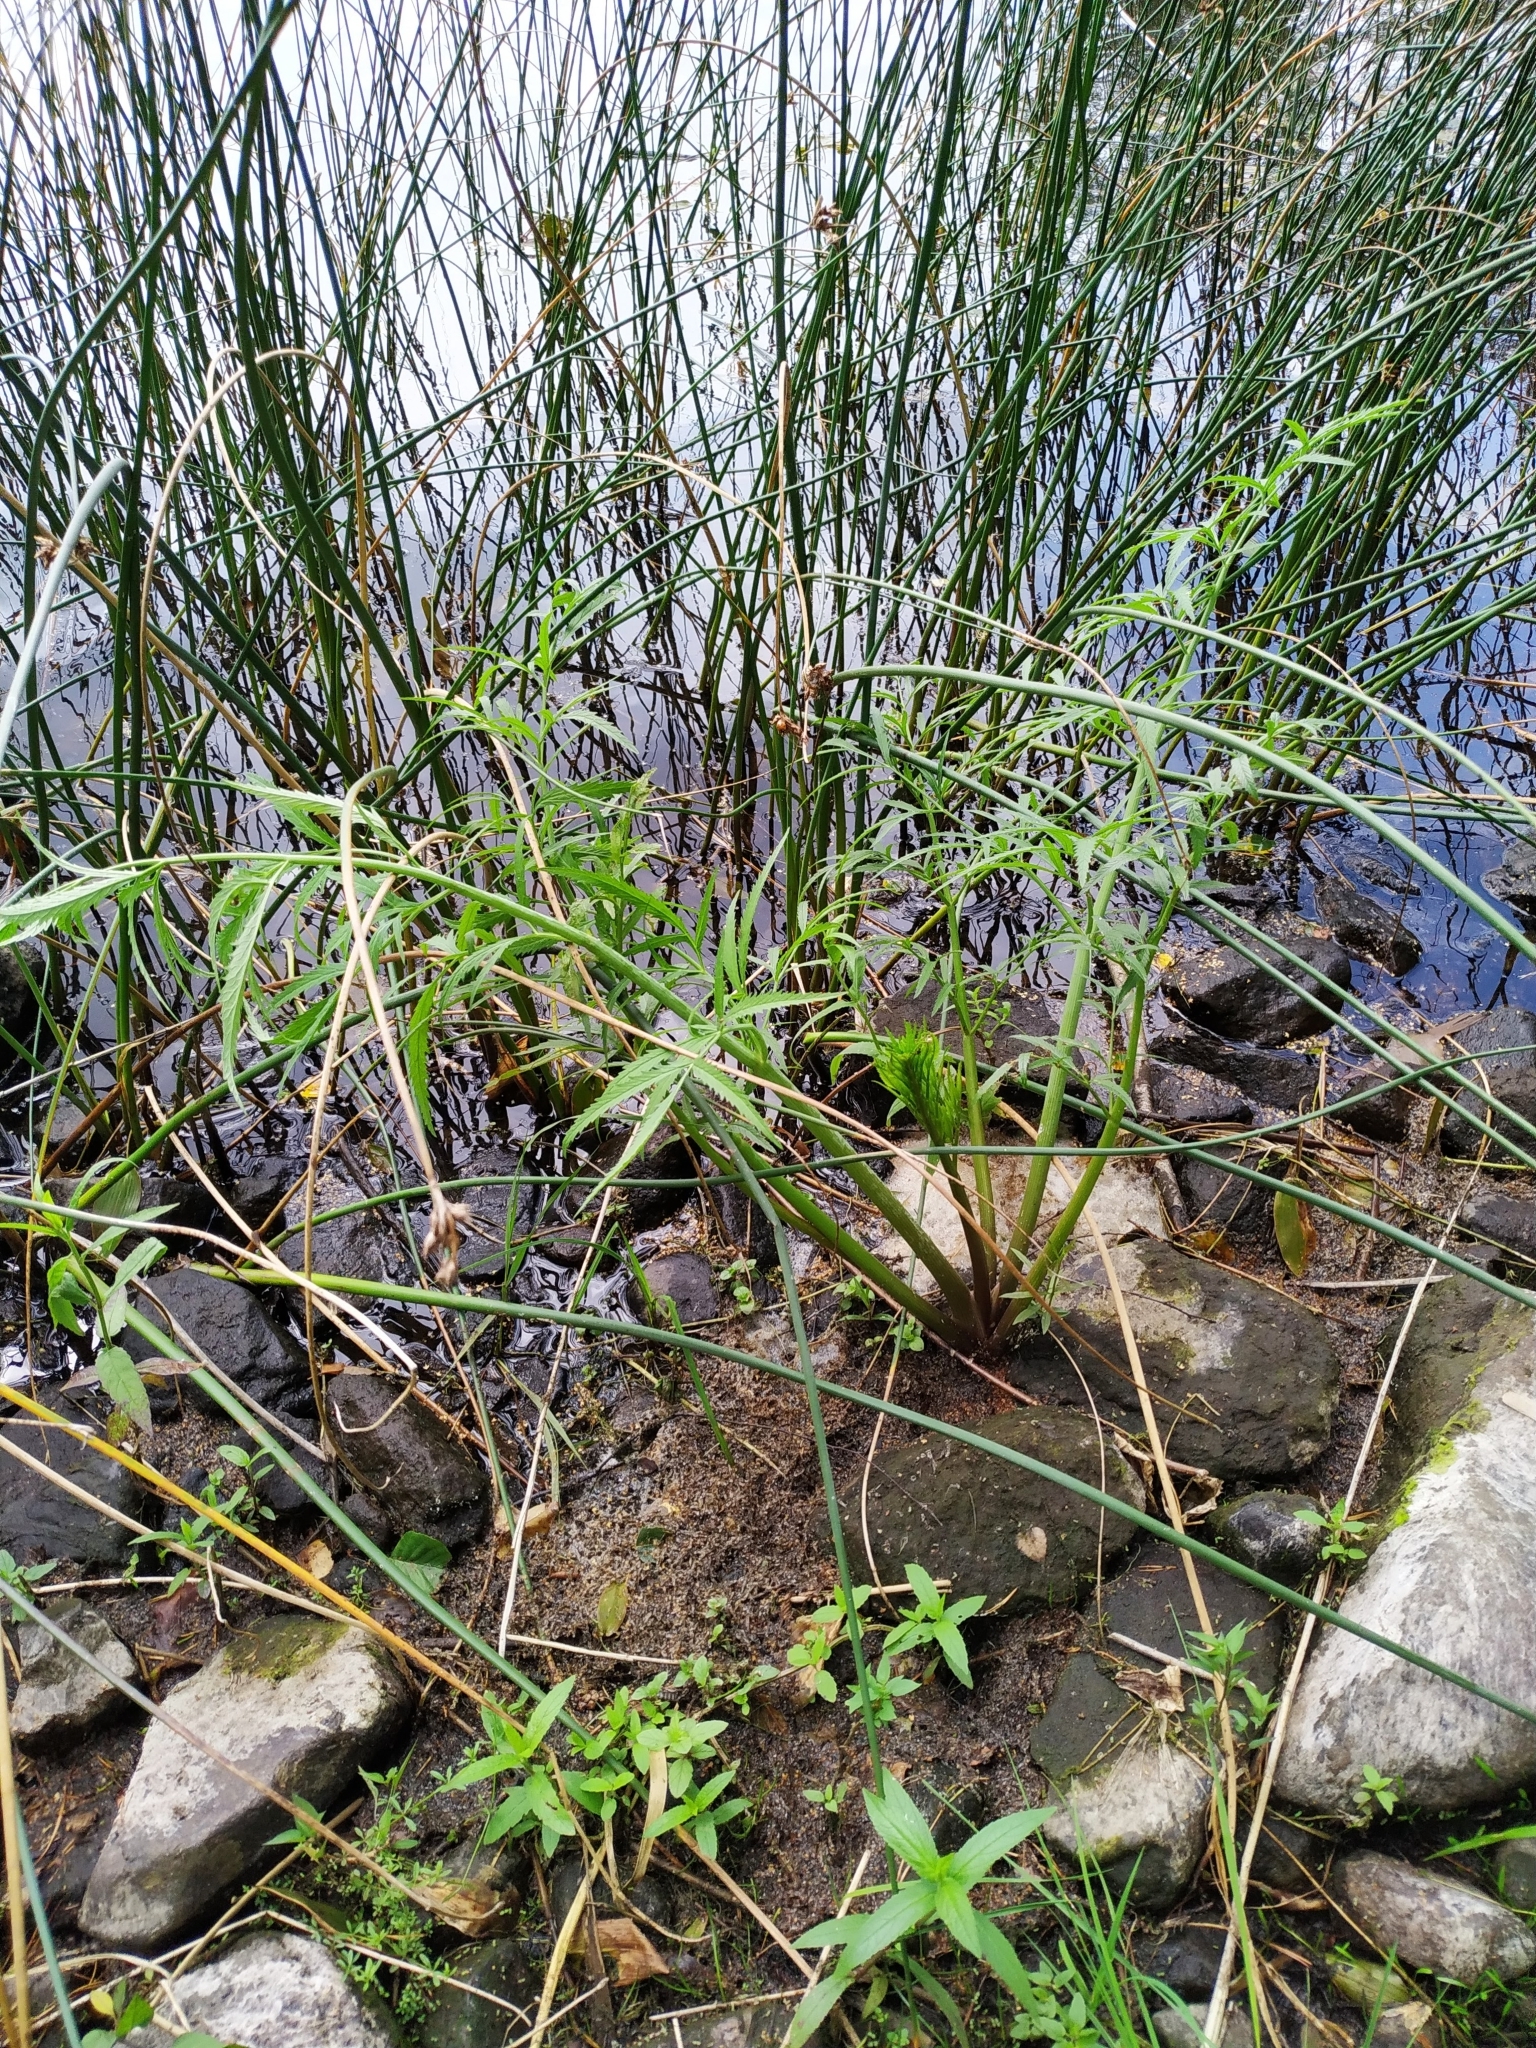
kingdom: Plantae
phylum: Tracheophyta
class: Magnoliopsida
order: Apiales
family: Apiaceae
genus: Cicuta
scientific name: Cicuta virosa
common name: Cowbane
